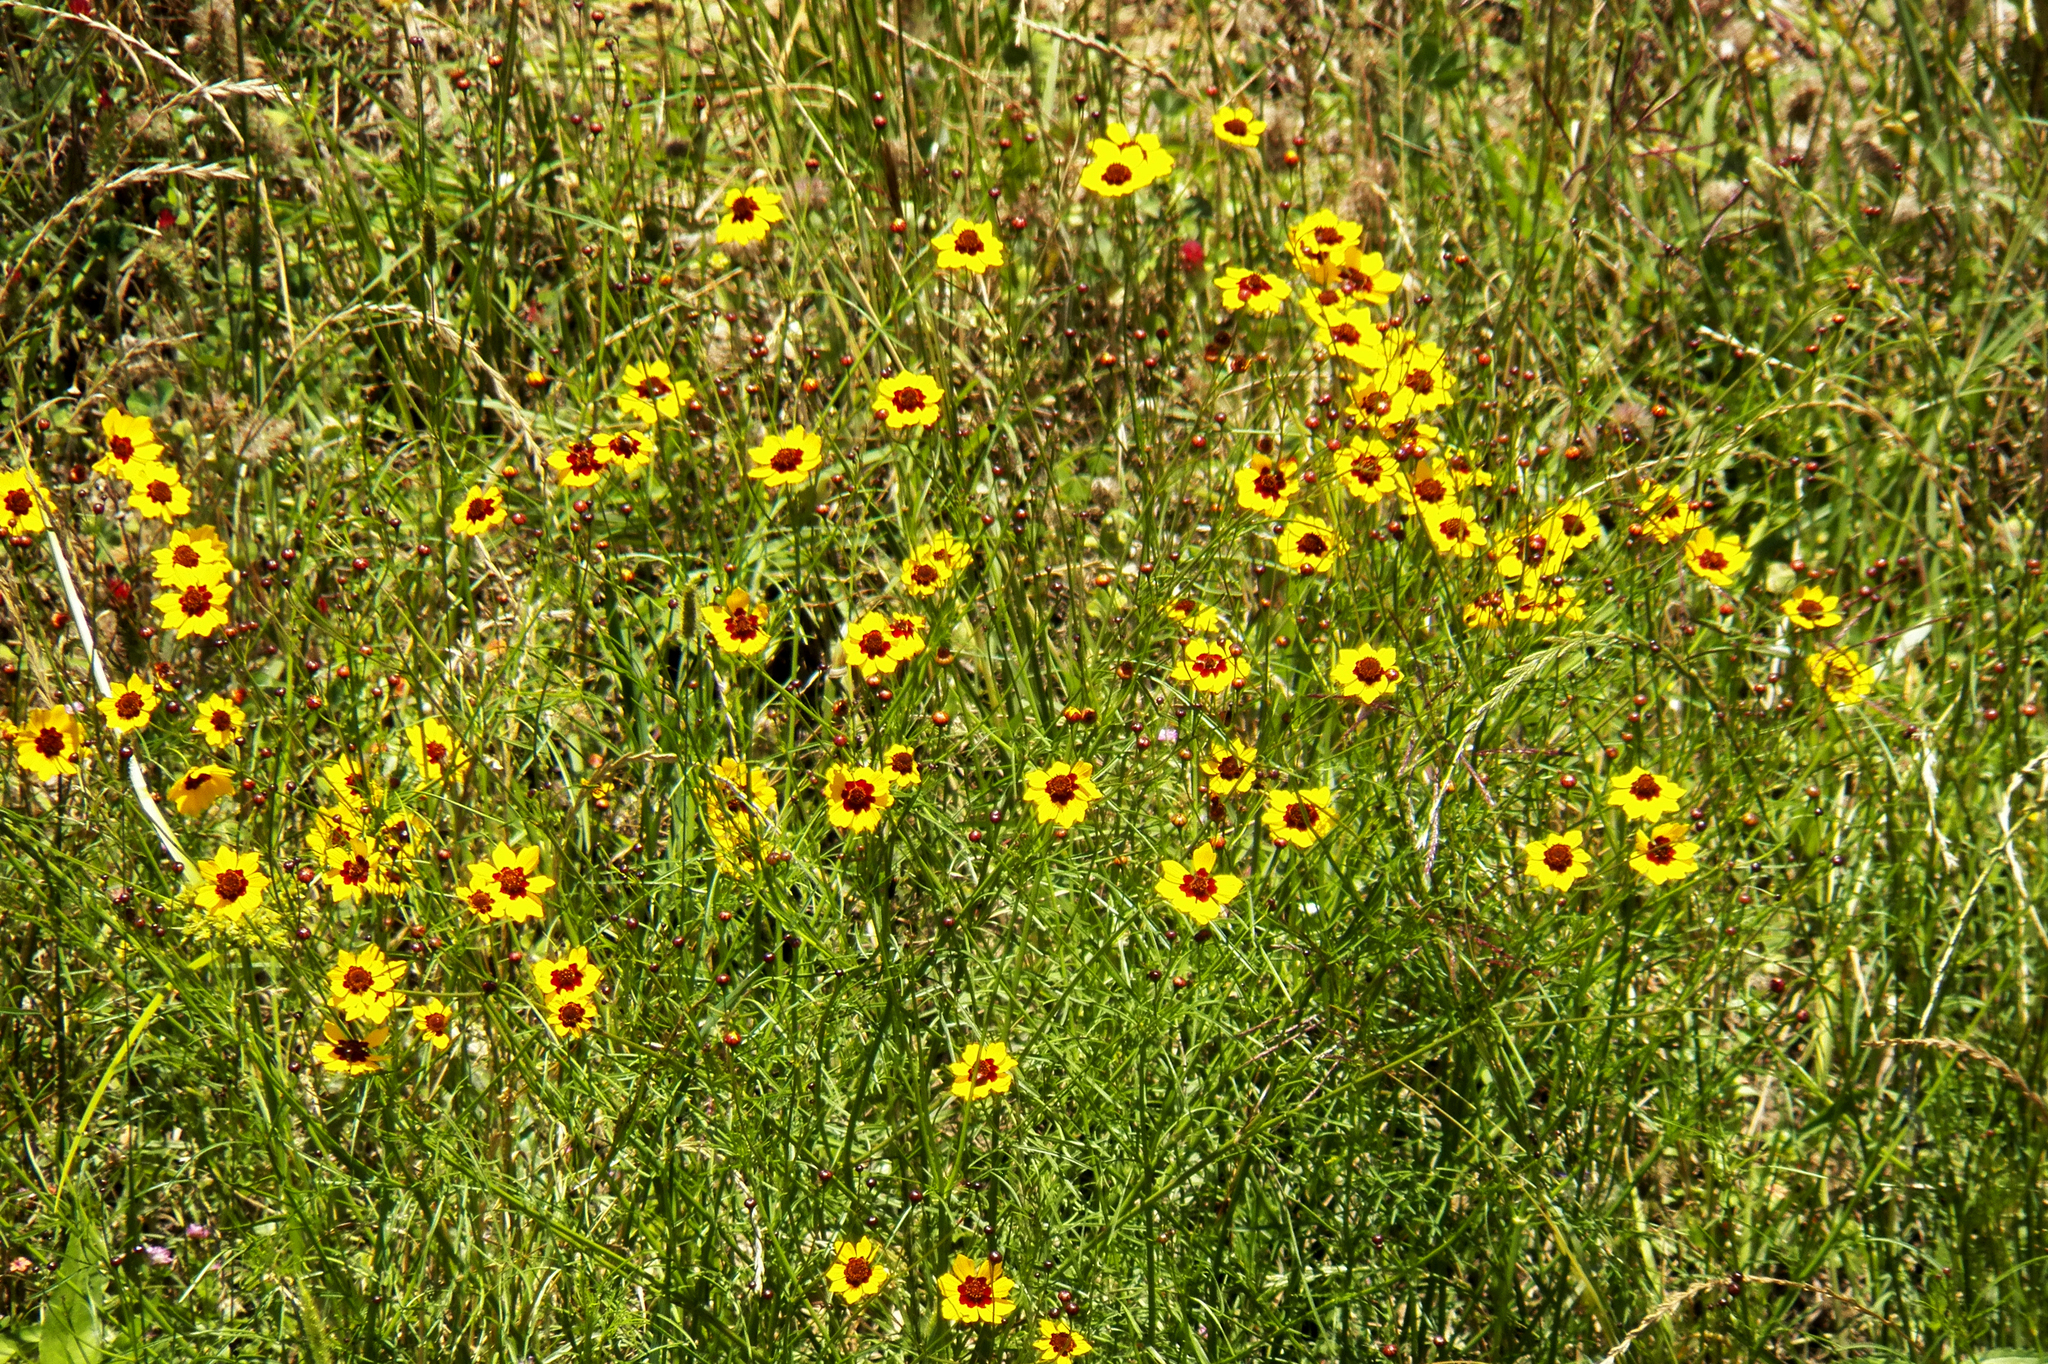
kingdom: Plantae
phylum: Tracheophyta
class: Magnoliopsida
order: Asterales
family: Asteraceae
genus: Coreopsis
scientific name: Coreopsis tinctoria
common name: Garden tickseed
